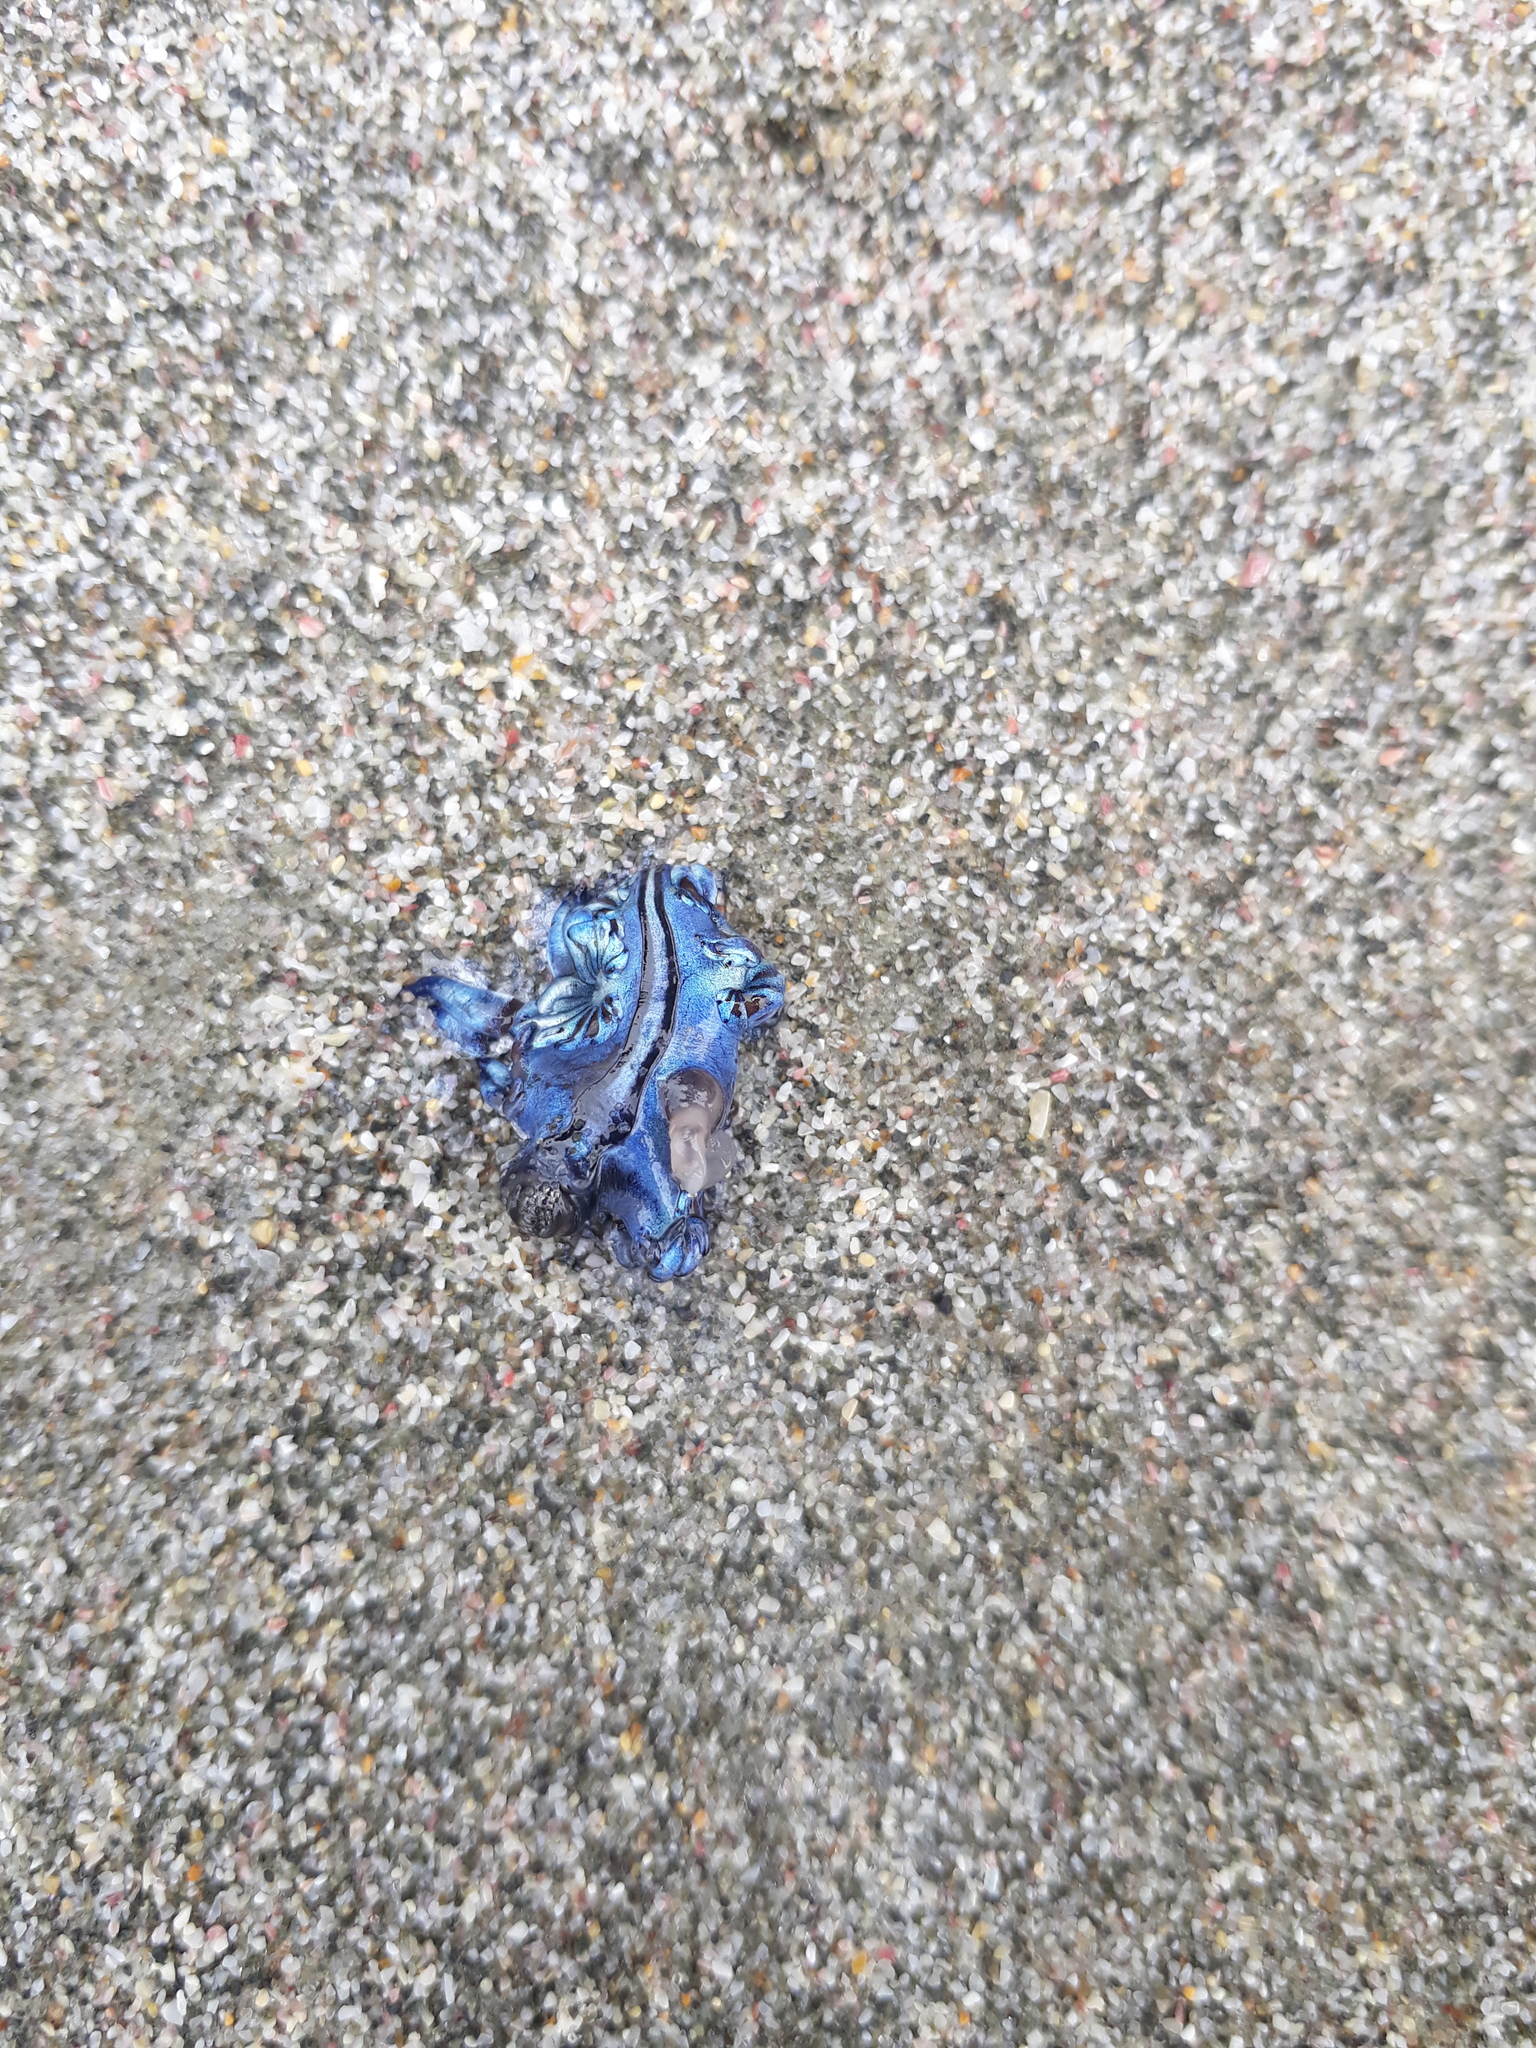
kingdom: Animalia
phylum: Mollusca
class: Gastropoda
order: Nudibranchia
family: Glaucidae
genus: Glaucus
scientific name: Glaucus atlanticus
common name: Purple ocean slug
